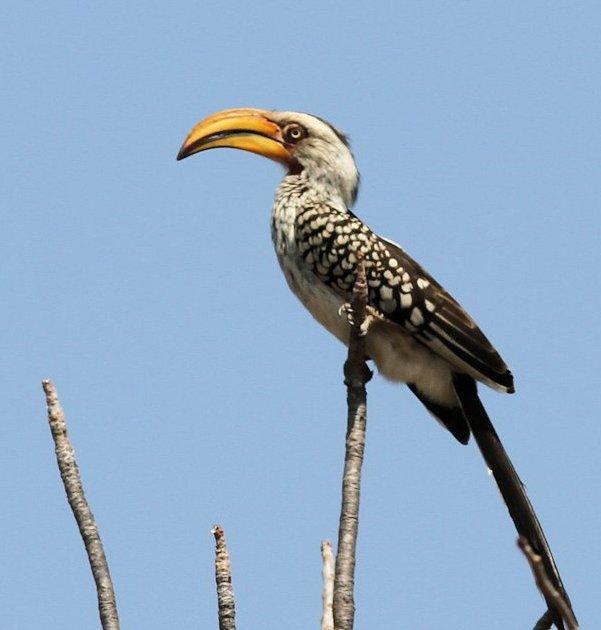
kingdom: Animalia
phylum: Chordata
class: Aves
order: Bucerotiformes
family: Bucerotidae
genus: Tockus
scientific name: Tockus leucomelas
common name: Southern yellow-billed hornbill
